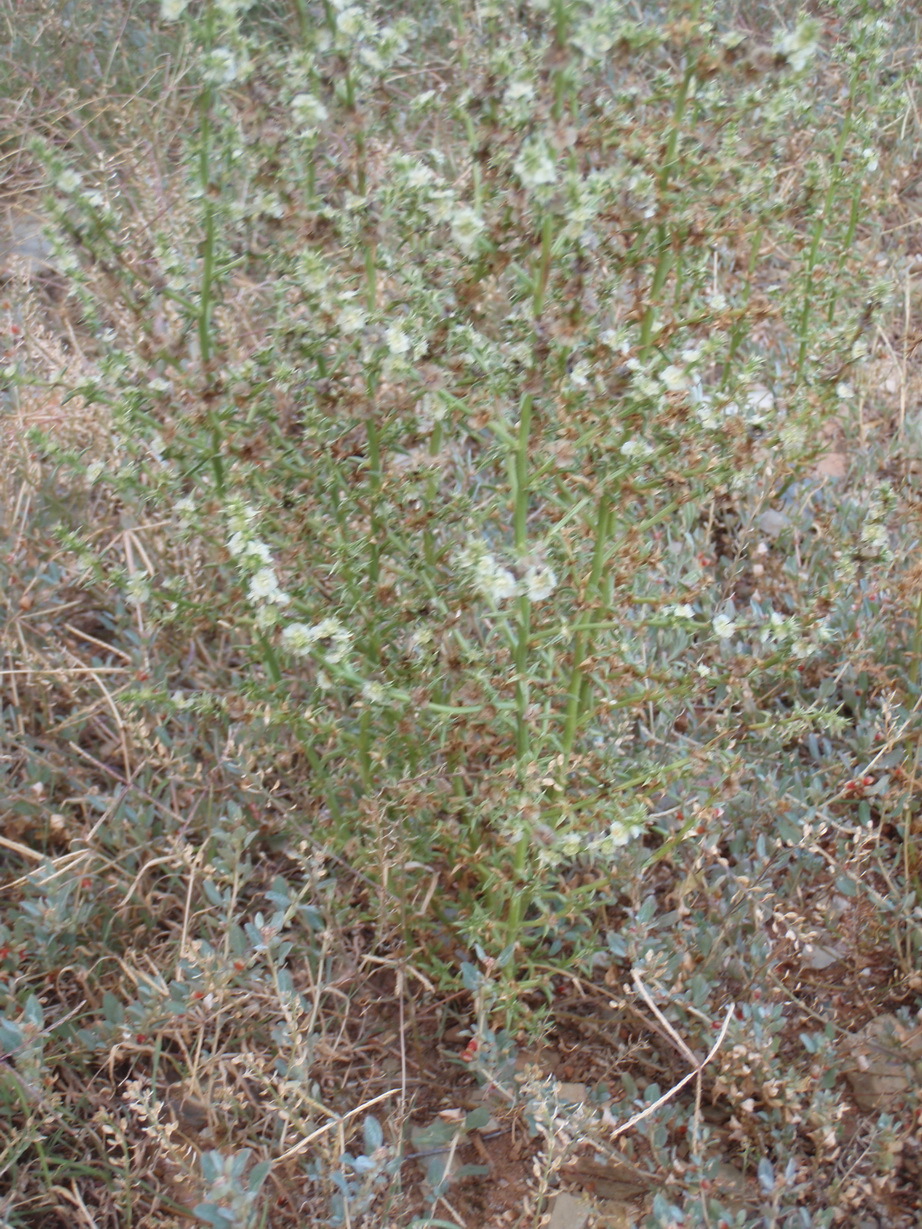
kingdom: Plantae
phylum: Tracheophyta
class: Magnoliopsida
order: Caryophyllales
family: Amaranthaceae
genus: Salsola
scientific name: Salsola kali
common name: Saltwort
